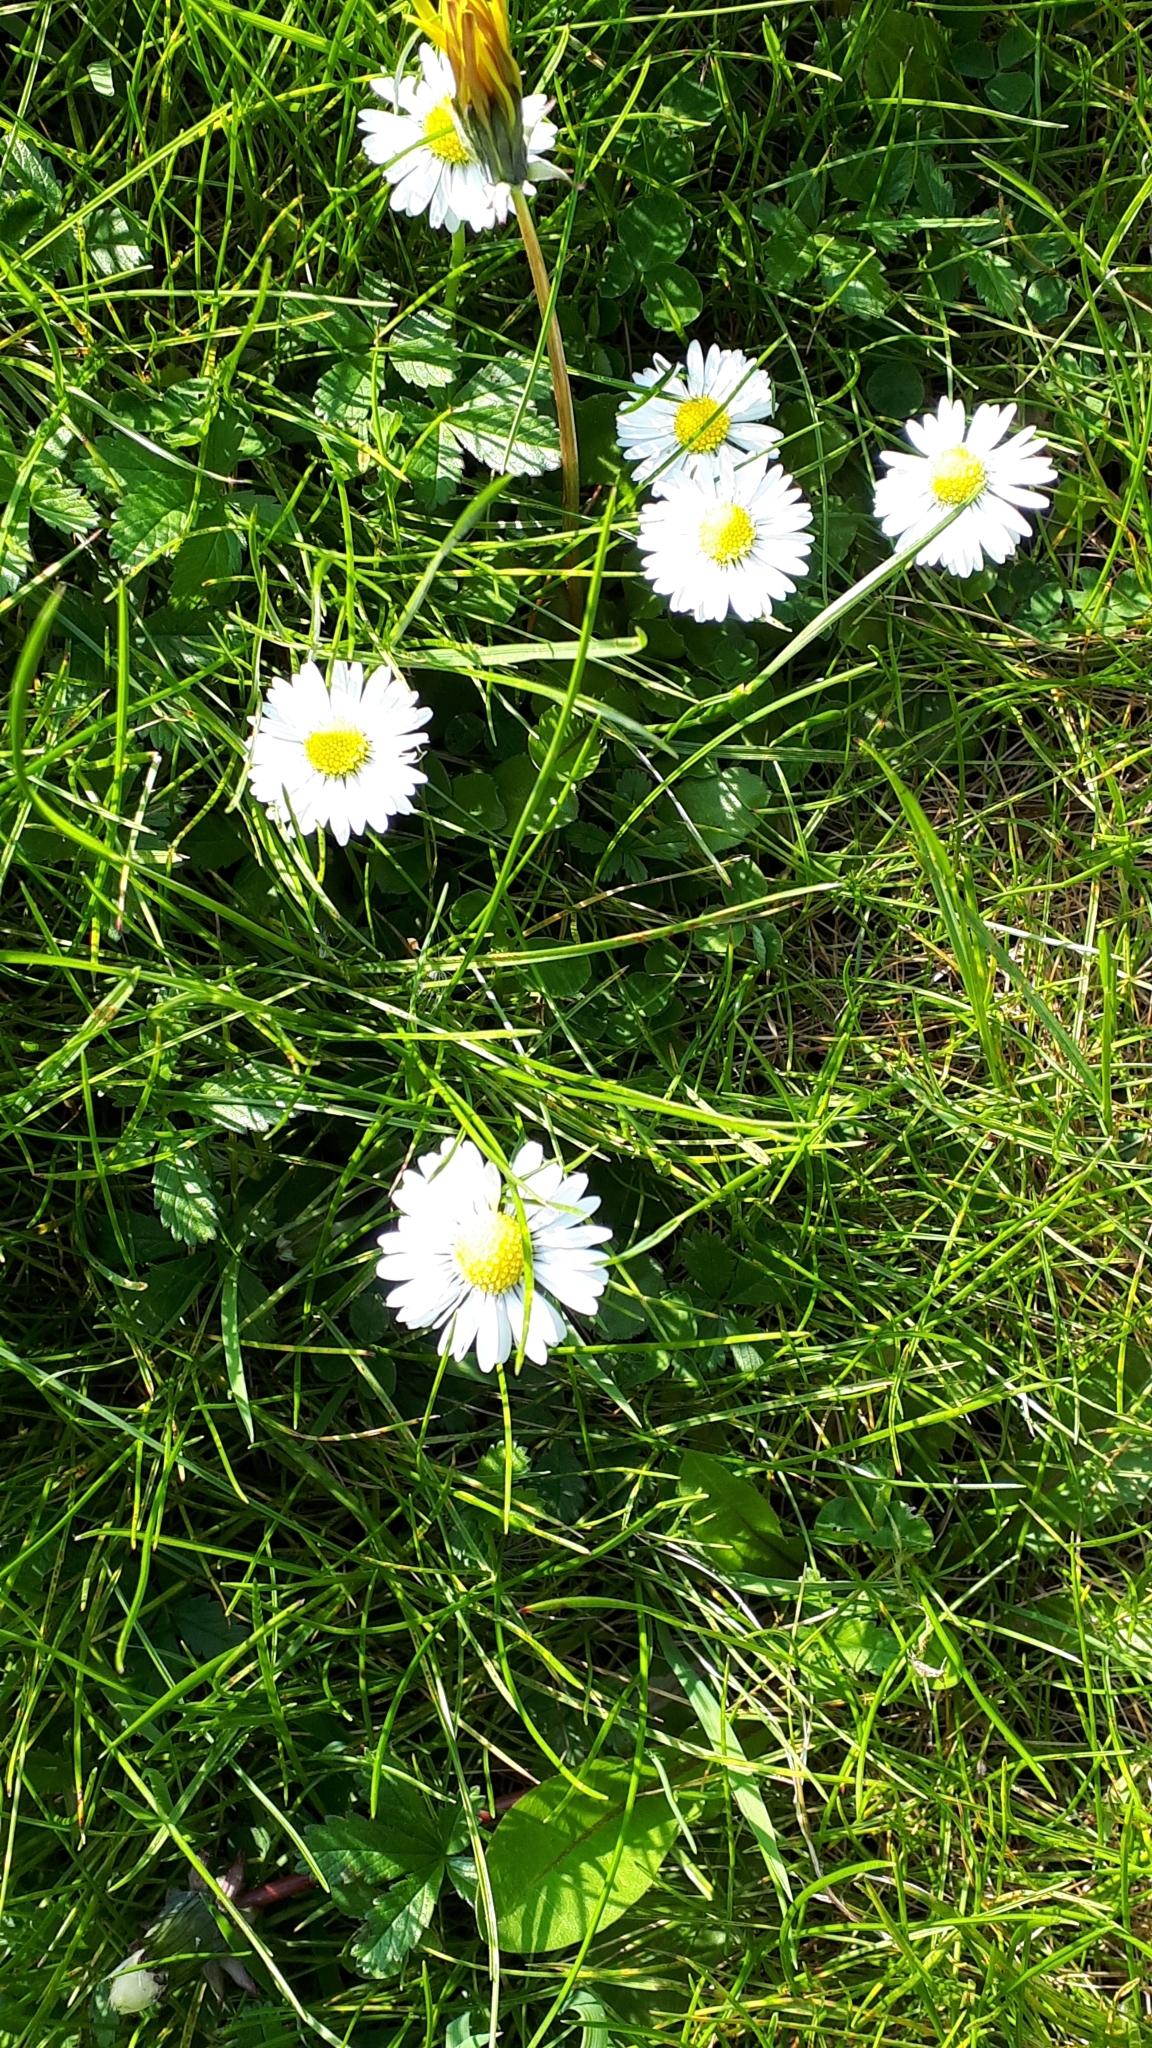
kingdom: Plantae
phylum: Tracheophyta
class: Magnoliopsida
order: Asterales
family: Asteraceae
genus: Bellis
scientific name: Bellis perennis
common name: Lawndaisy
